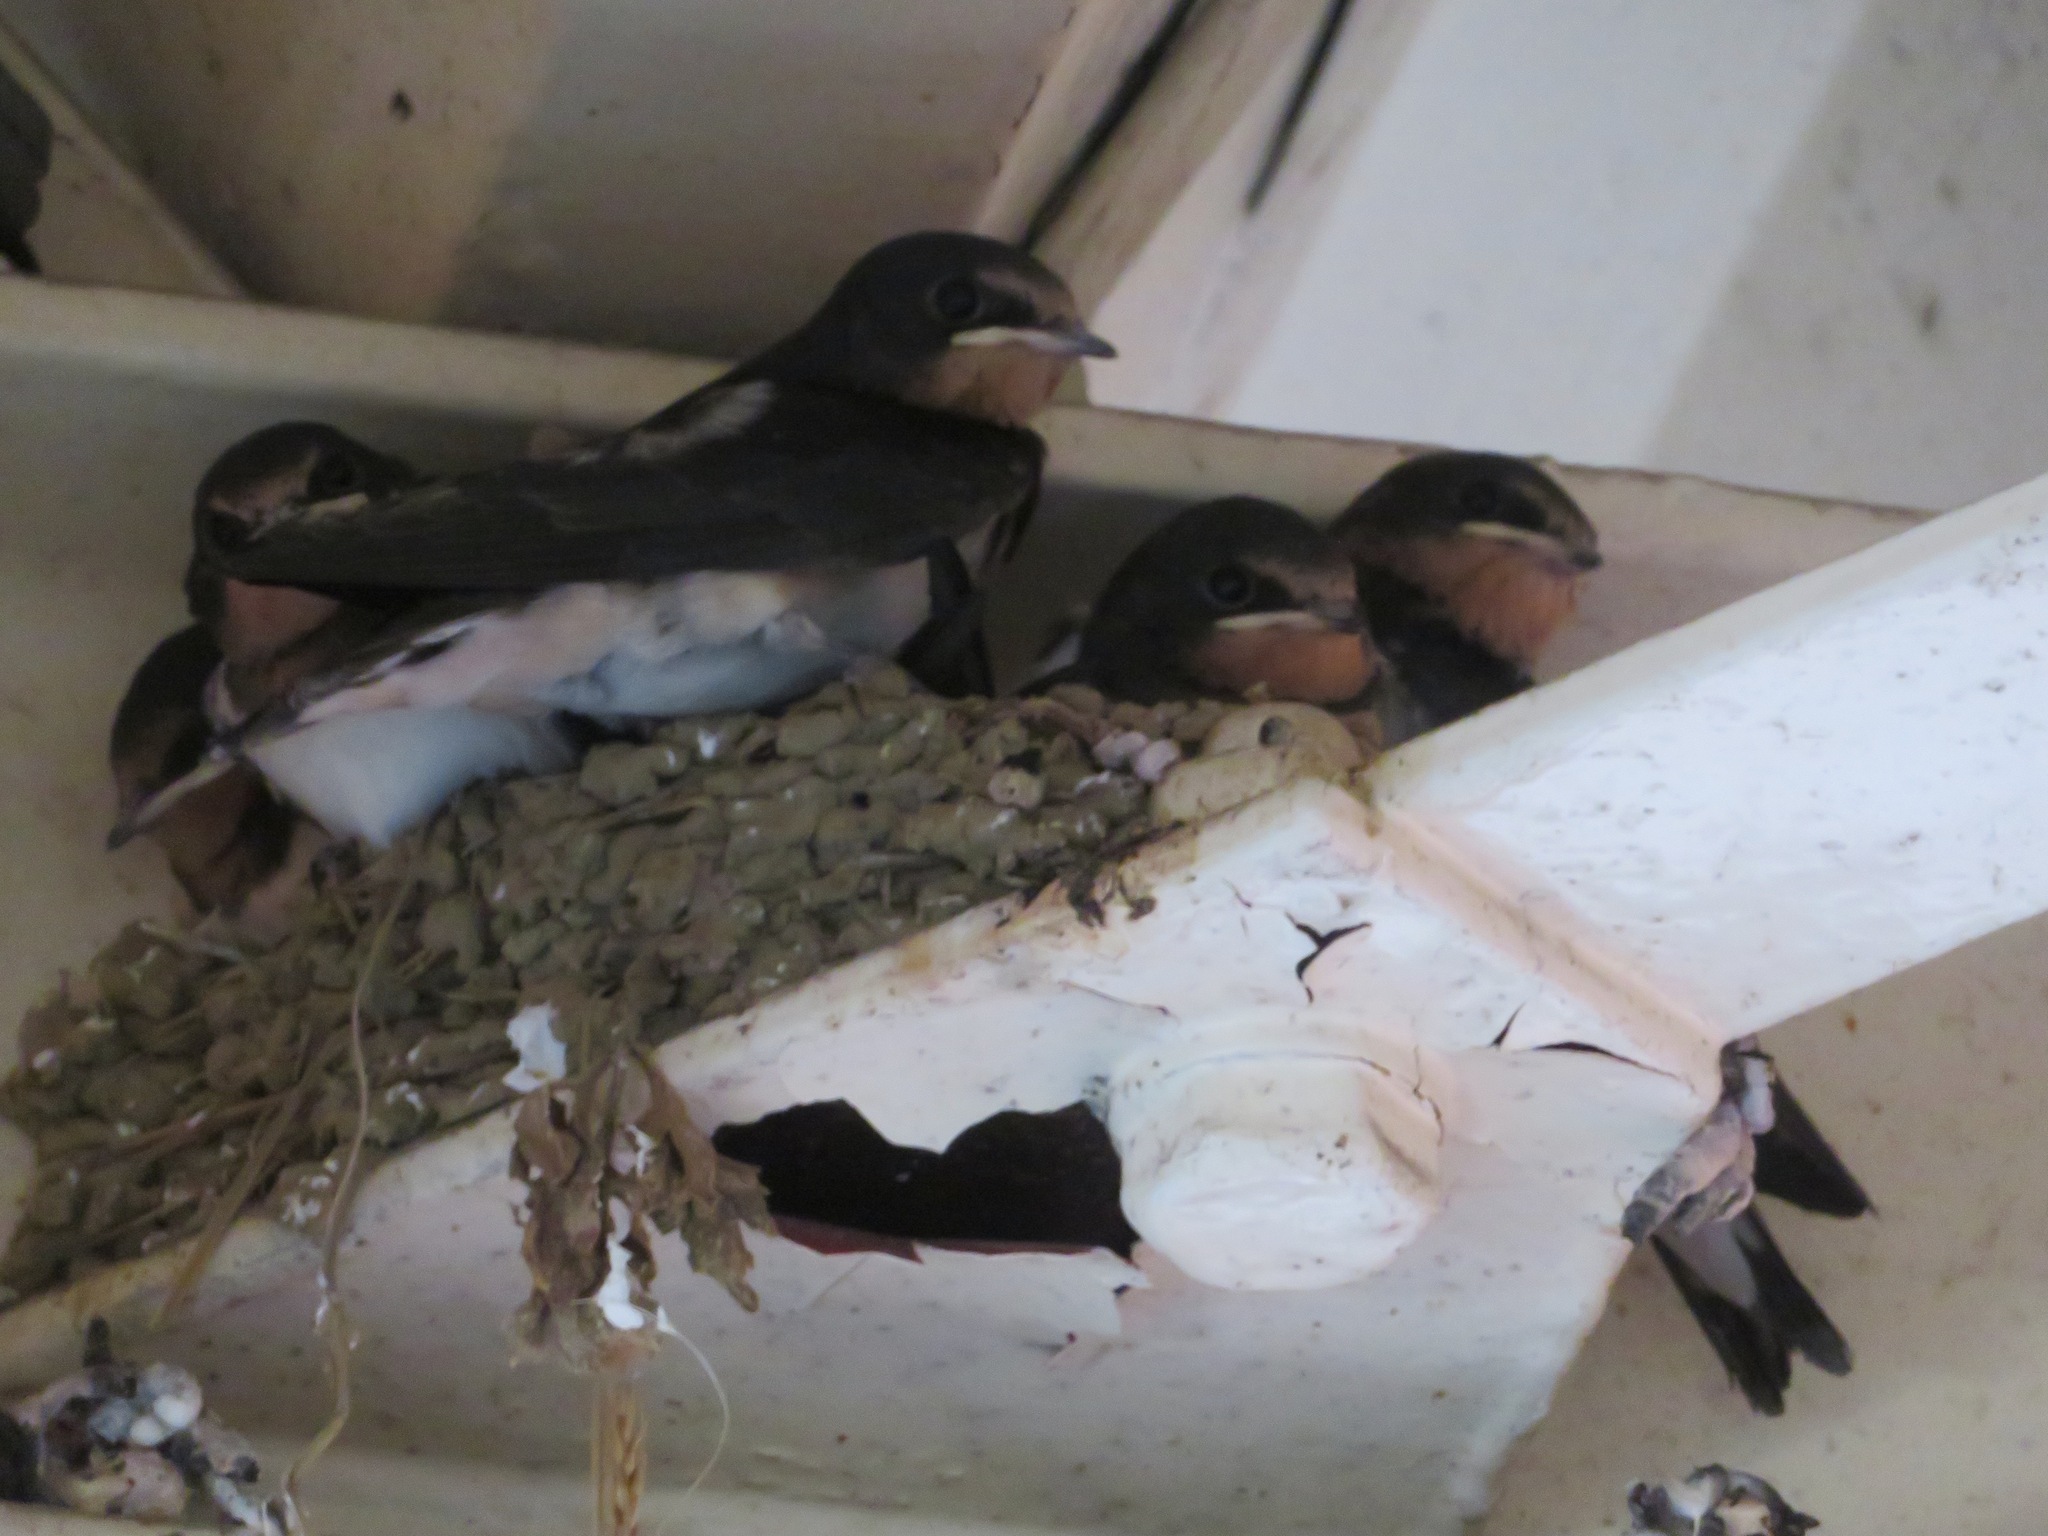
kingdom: Animalia
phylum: Chordata
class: Aves
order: Passeriformes
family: Hirundinidae
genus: Hirundo
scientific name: Hirundo rustica
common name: Barn swallow
